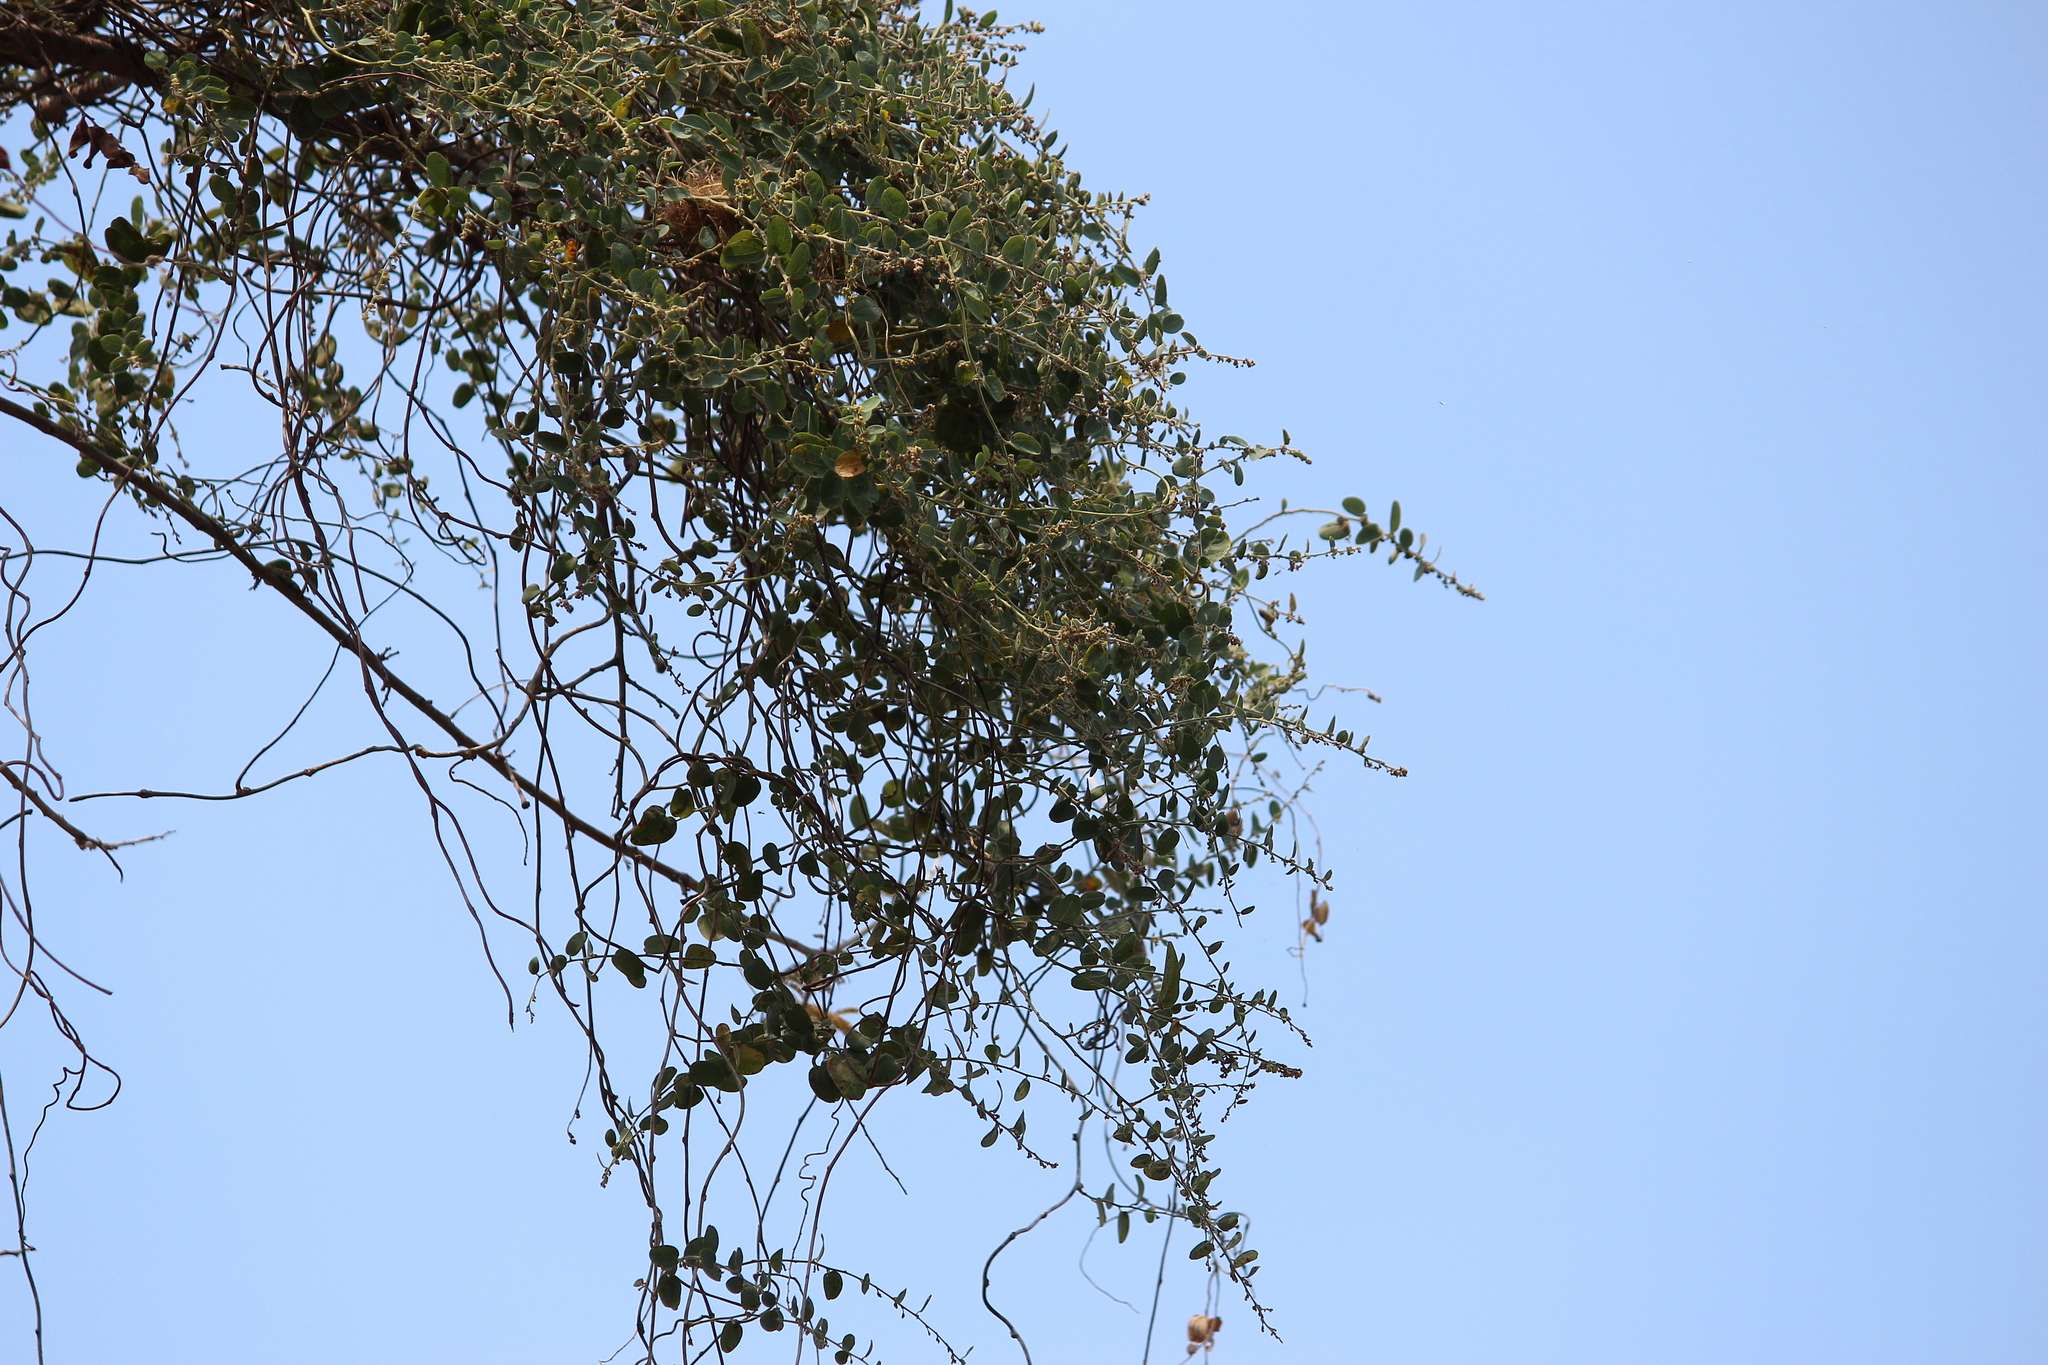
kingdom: Plantae
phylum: Tracheophyta
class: Magnoliopsida
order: Ranunculales
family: Menispermaceae
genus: Cocculus
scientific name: Cocculus hirsutus
